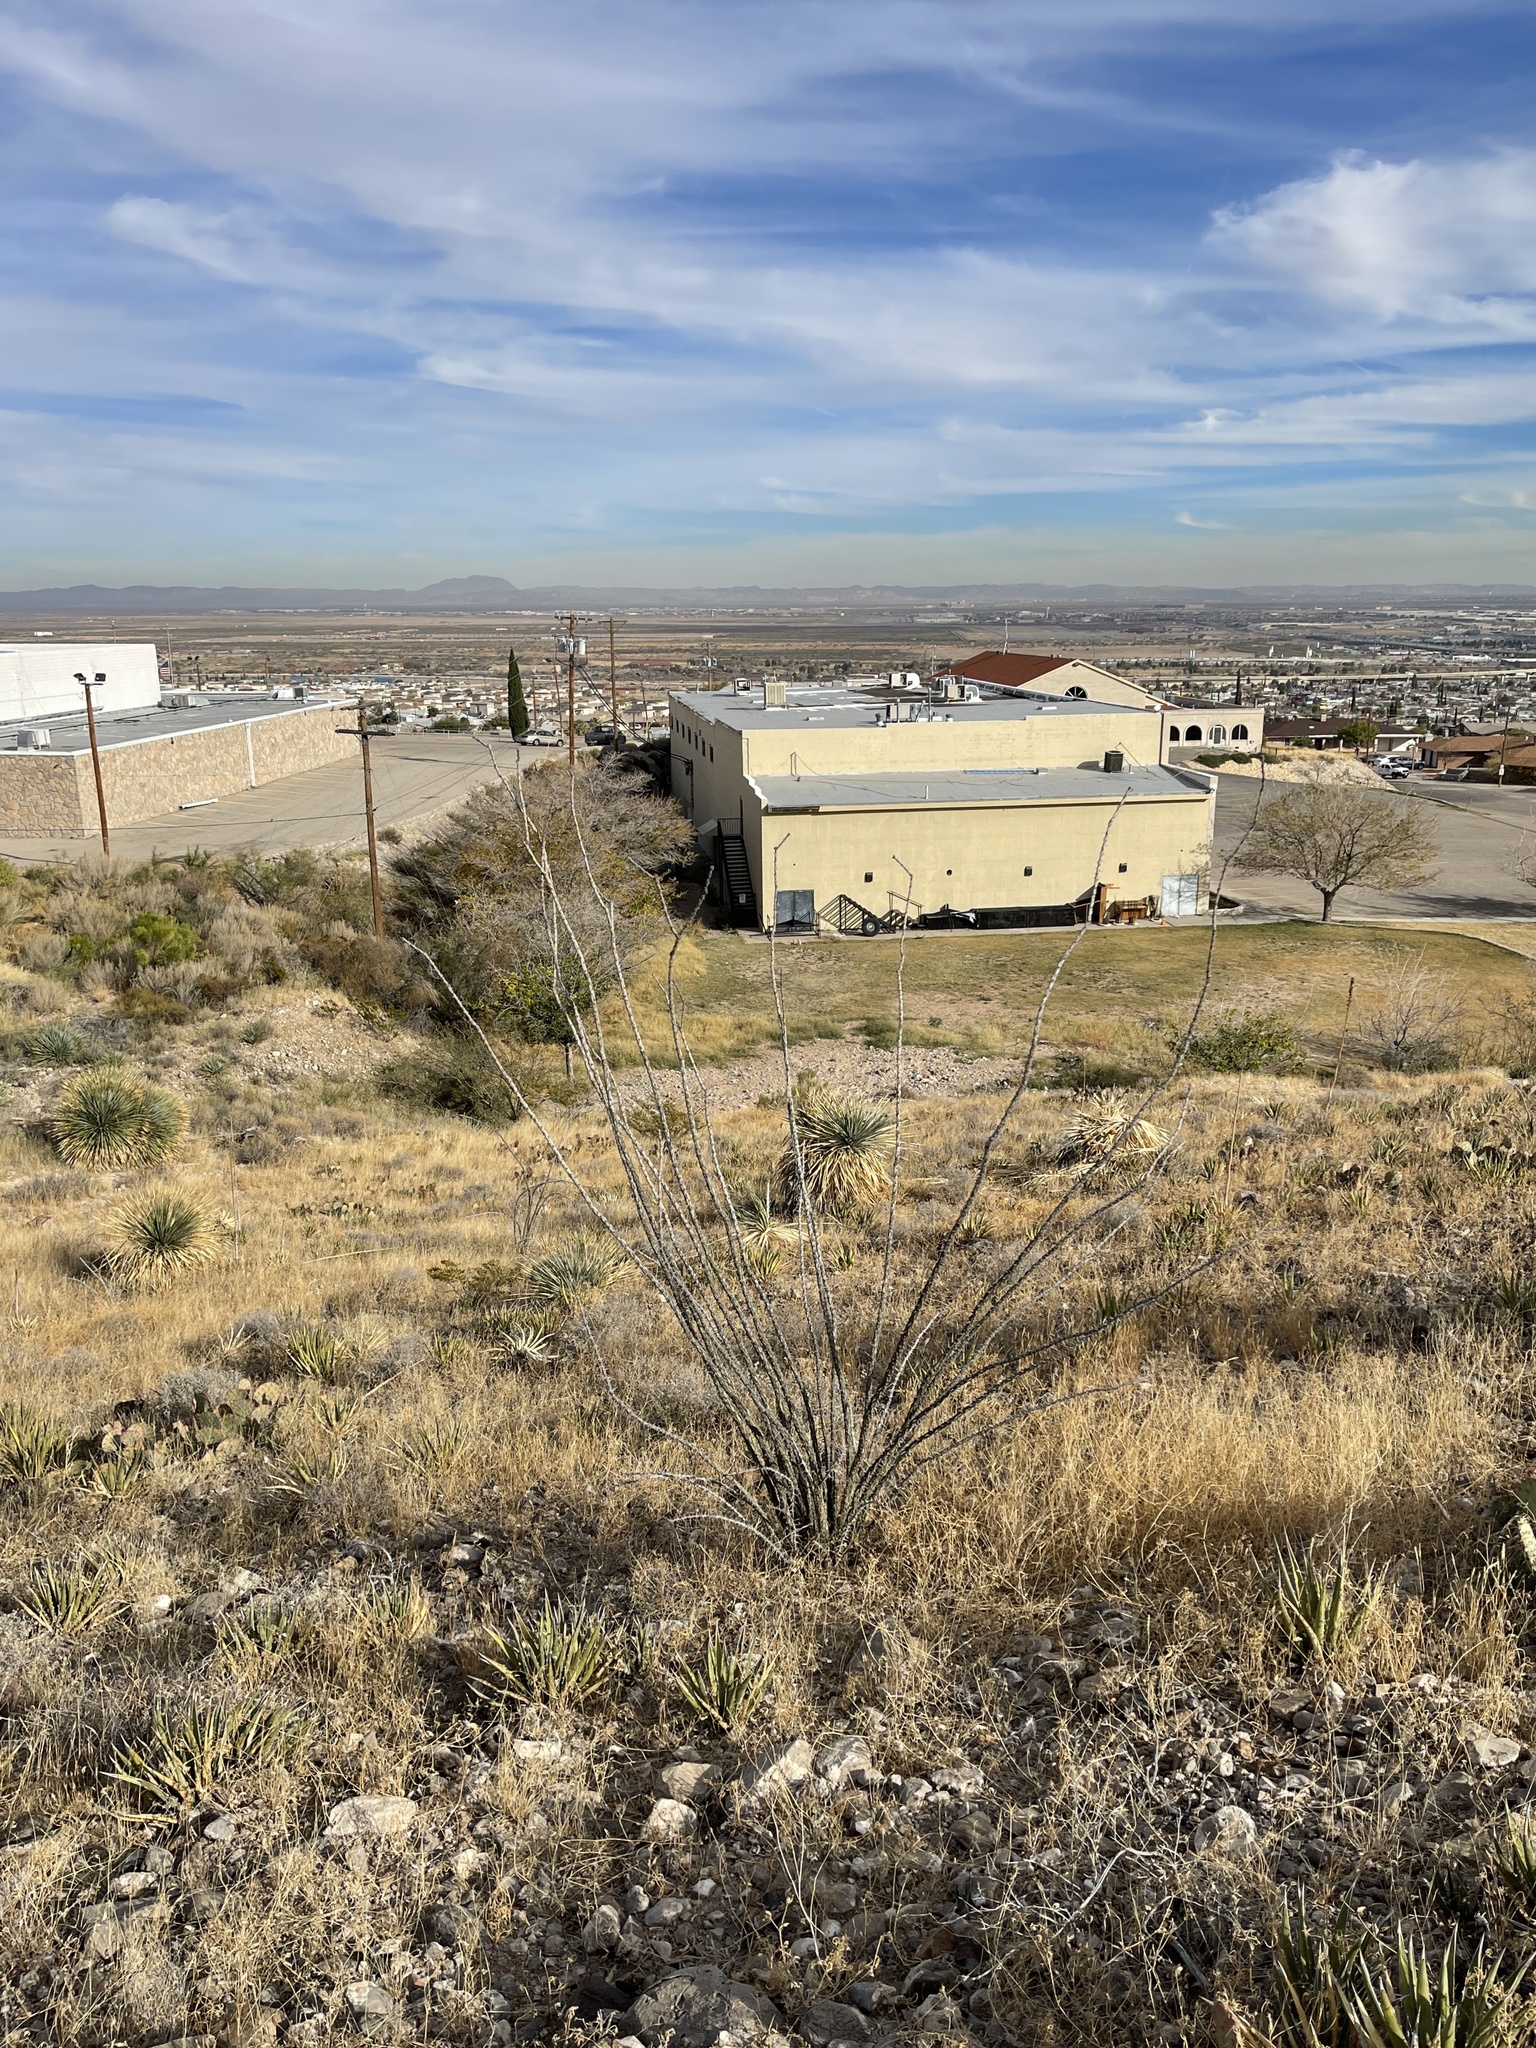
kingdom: Plantae
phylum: Tracheophyta
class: Magnoliopsida
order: Ericales
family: Fouquieriaceae
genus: Fouquieria
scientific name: Fouquieria splendens
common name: Vine-cactus
